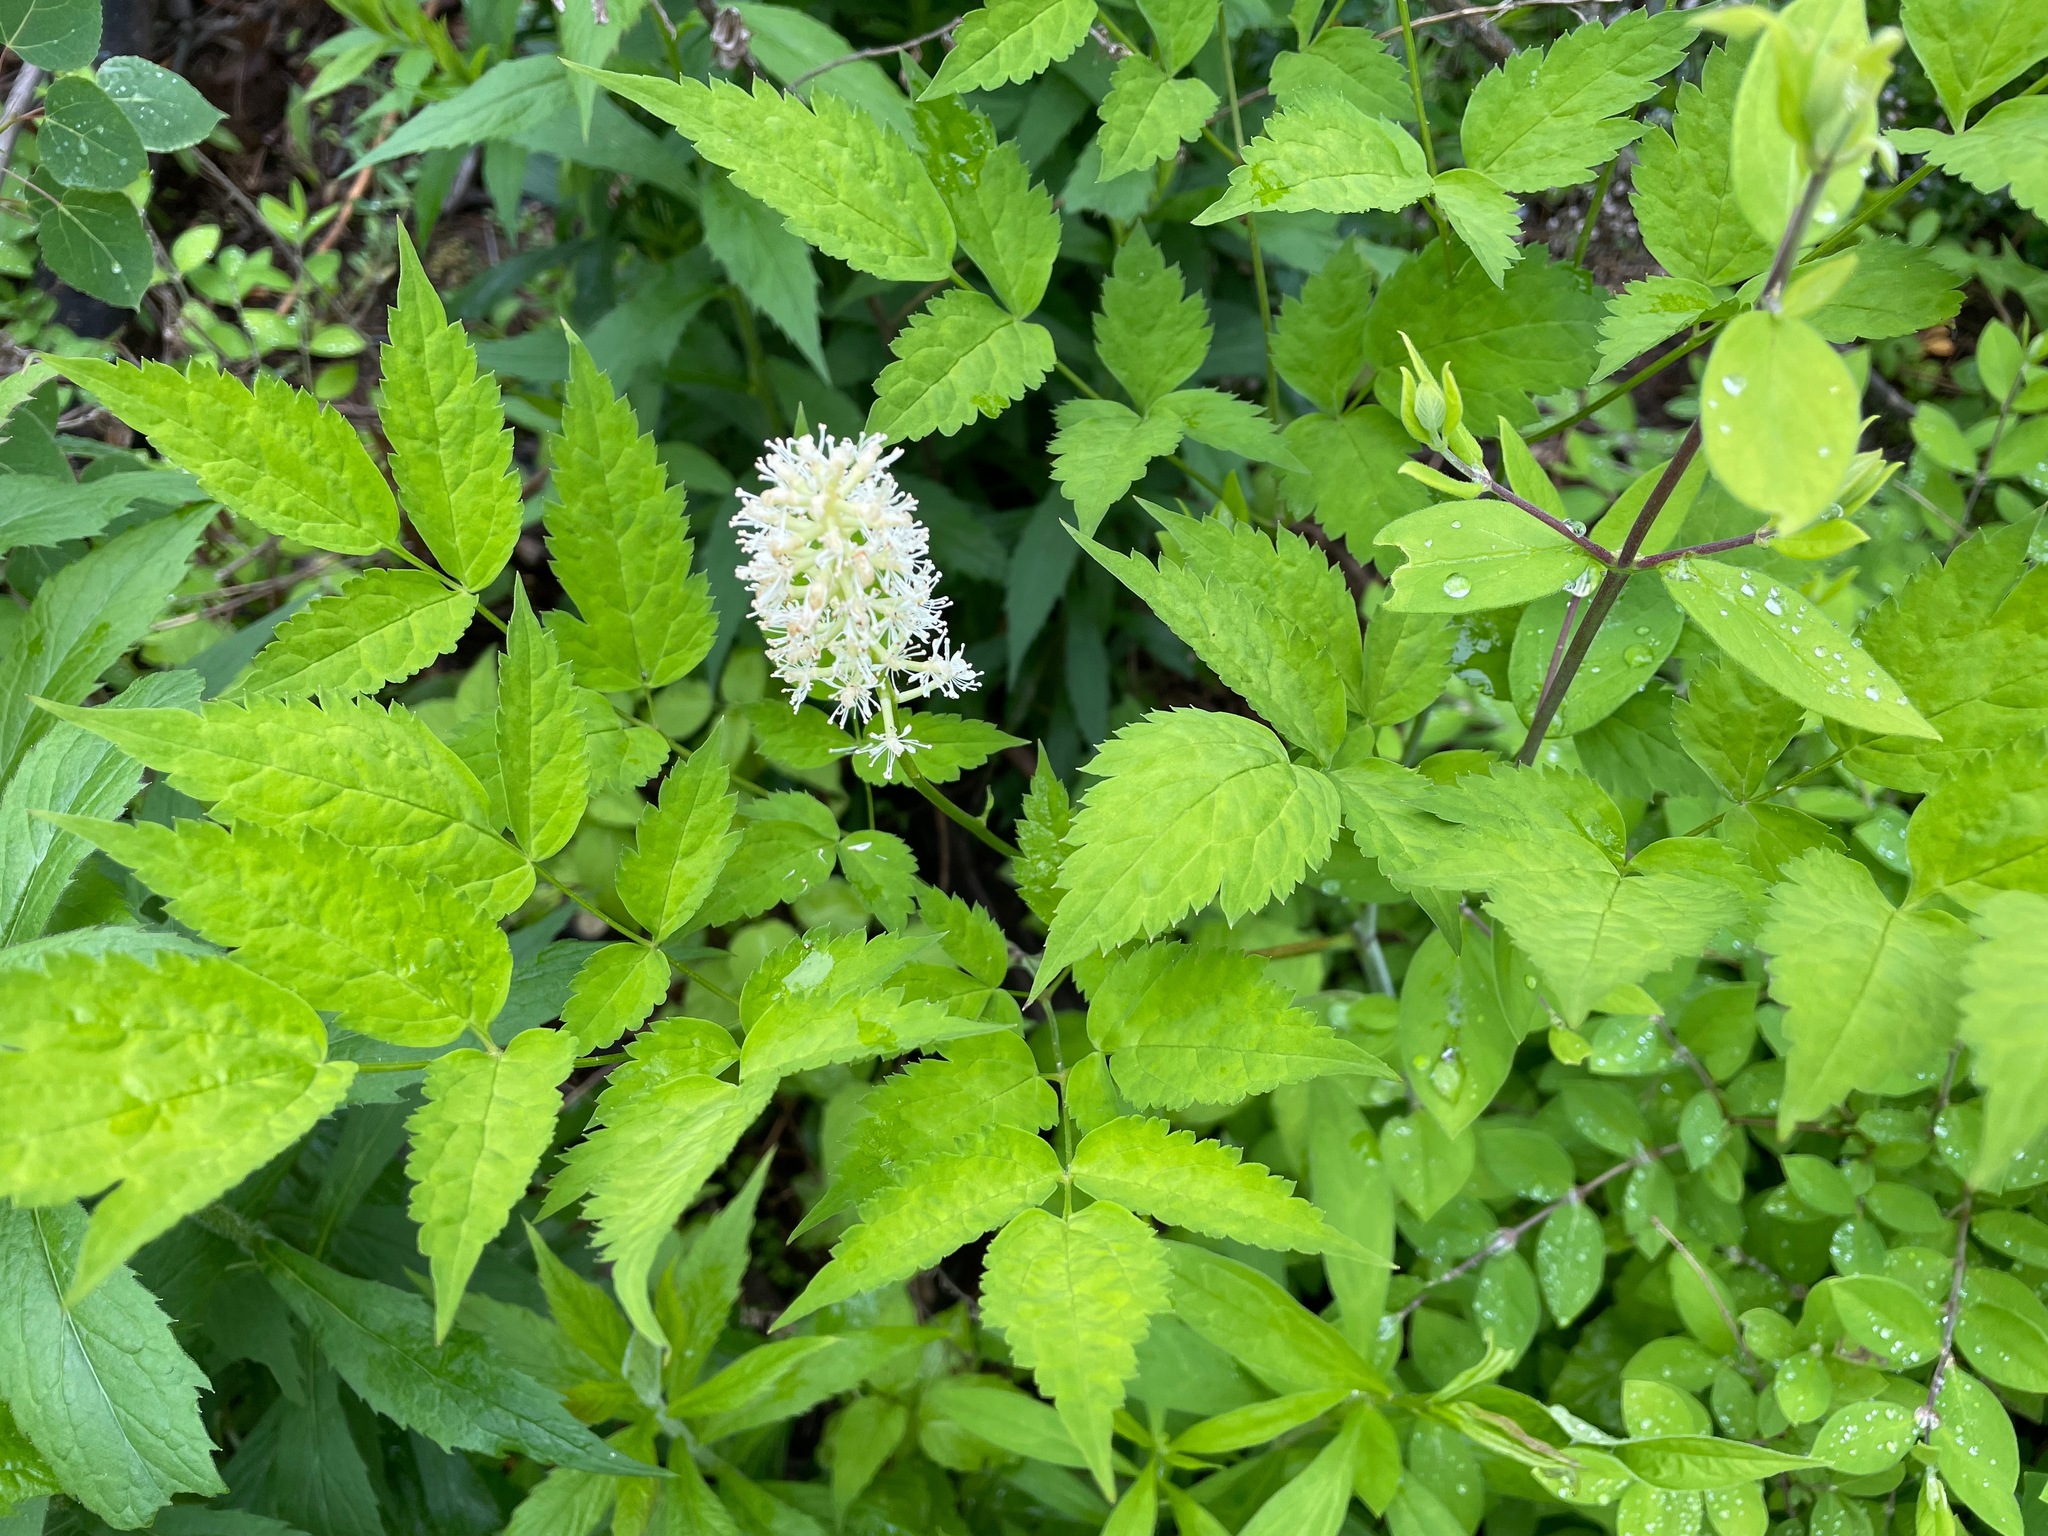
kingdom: Plantae
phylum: Tracheophyta
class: Magnoliopsida
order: Ranunculales
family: Ranunculaceae
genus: Actaea
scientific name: Actaea pachypoda
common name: Doll's-eyes
